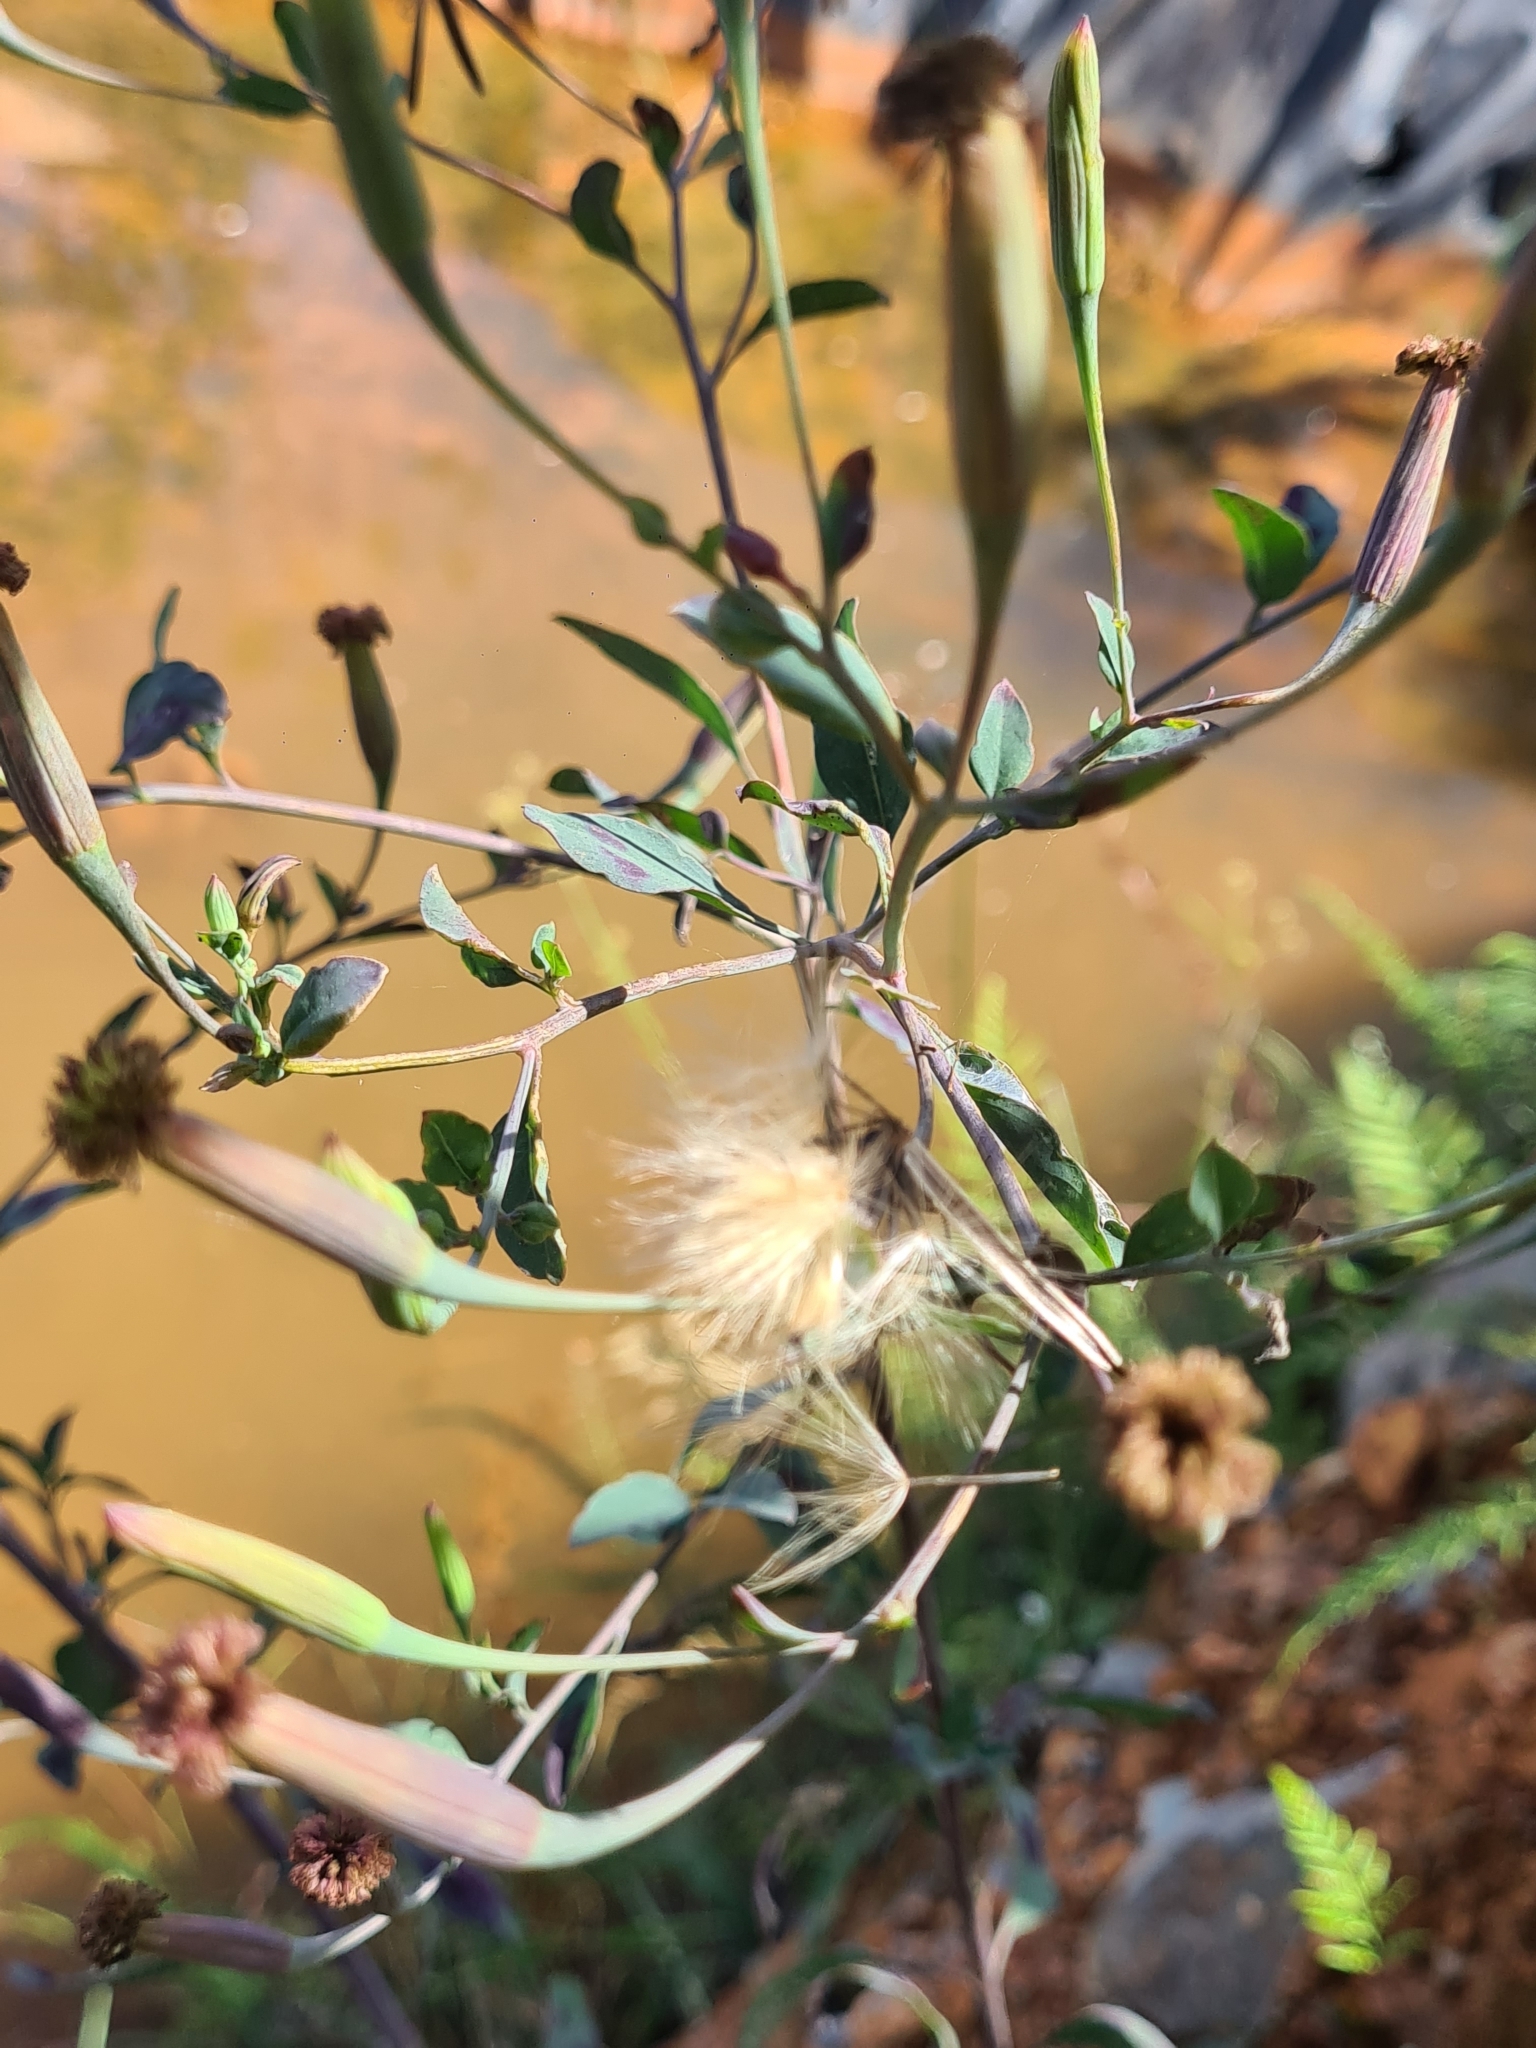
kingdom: Plantae
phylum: Tracheophyta
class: Magnoliopsida
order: Asterales
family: Asteraceae
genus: Porophyllum
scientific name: Porophyllum ruderale
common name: Yerba porosa
